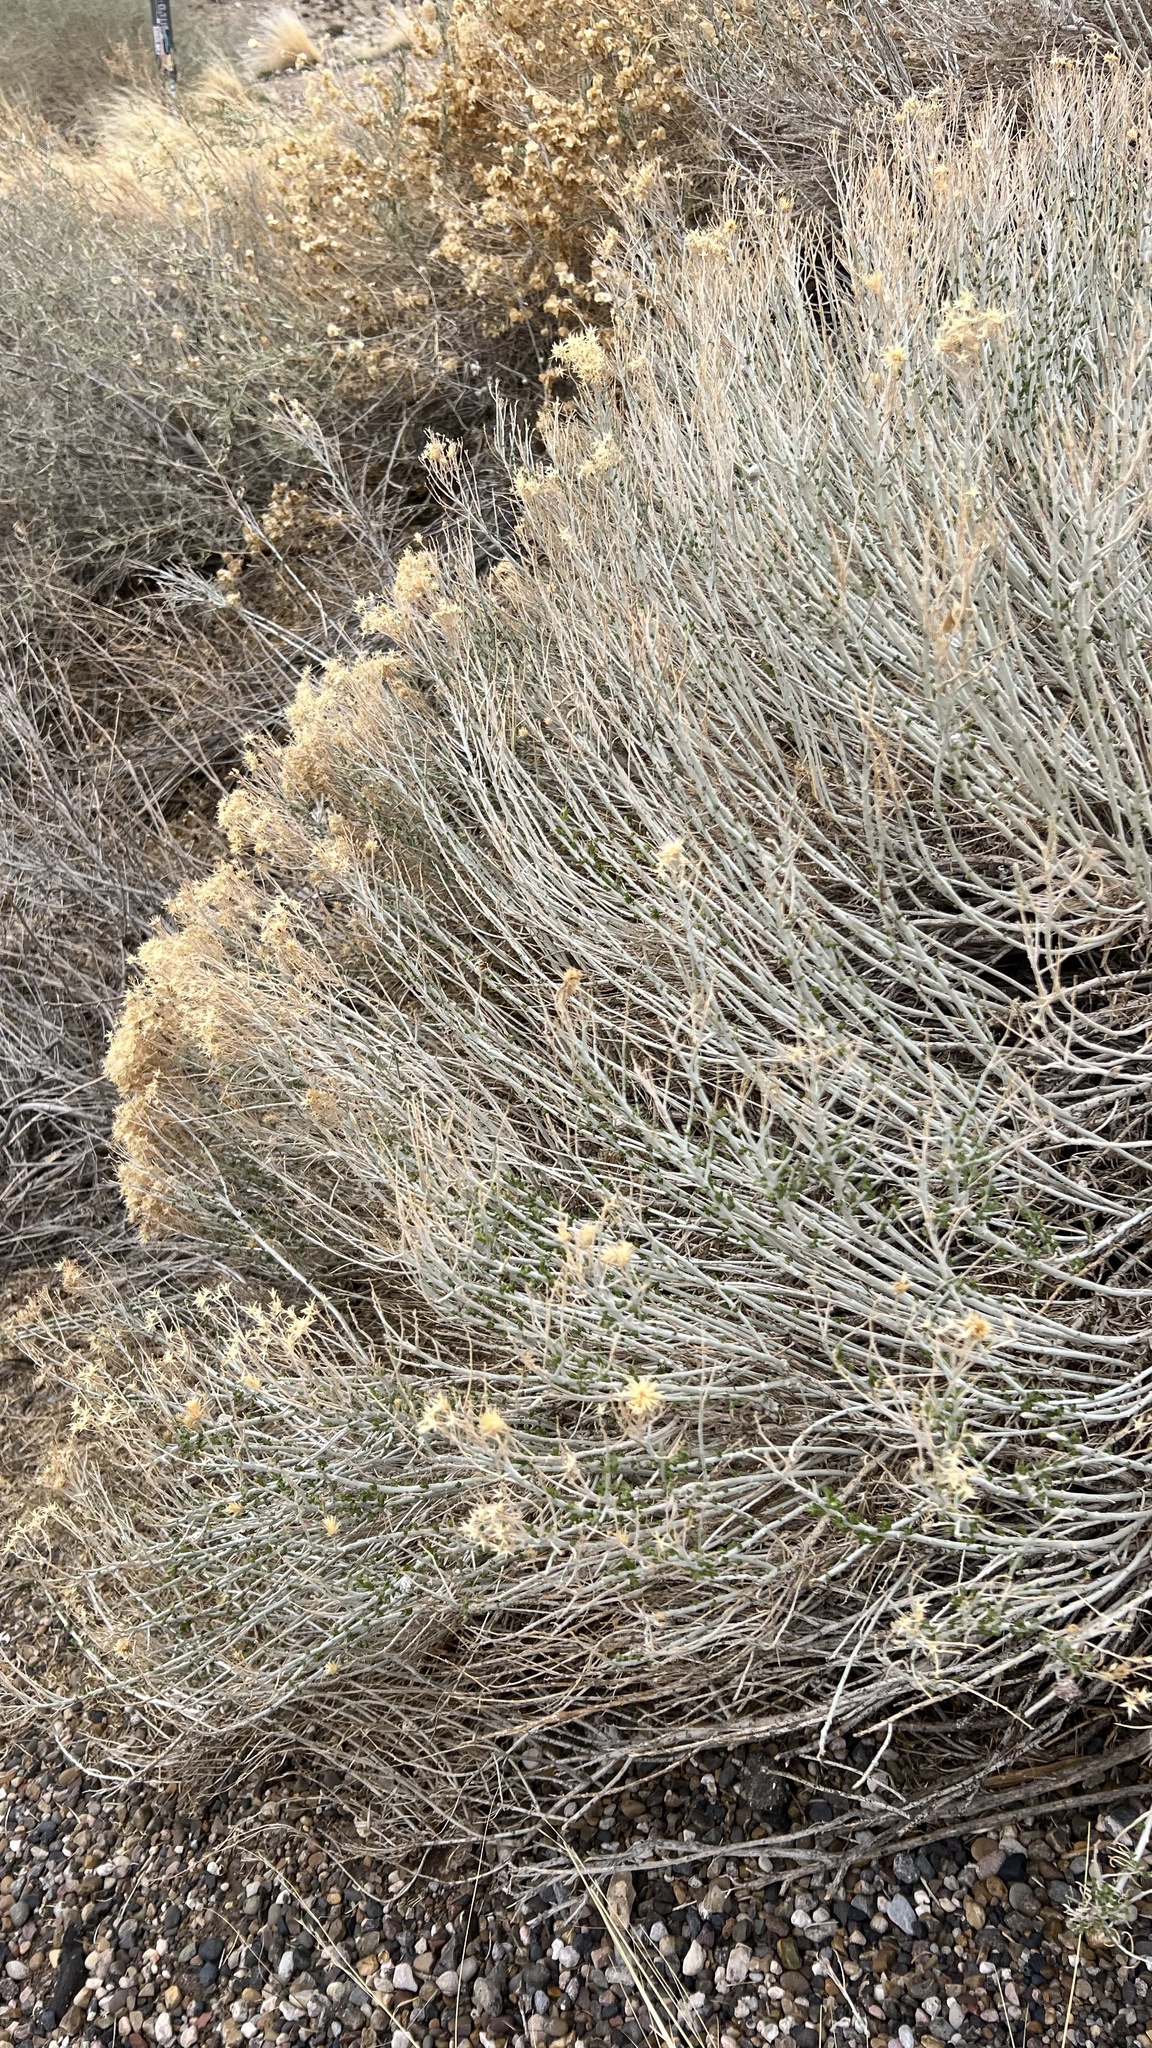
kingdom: Plantae
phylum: Tracheophyta
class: Magnoliopsida
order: Asterales
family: Asteraceae
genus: Ericameria
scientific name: Ericameria nauseosa
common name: Rubber rabbitbrush
